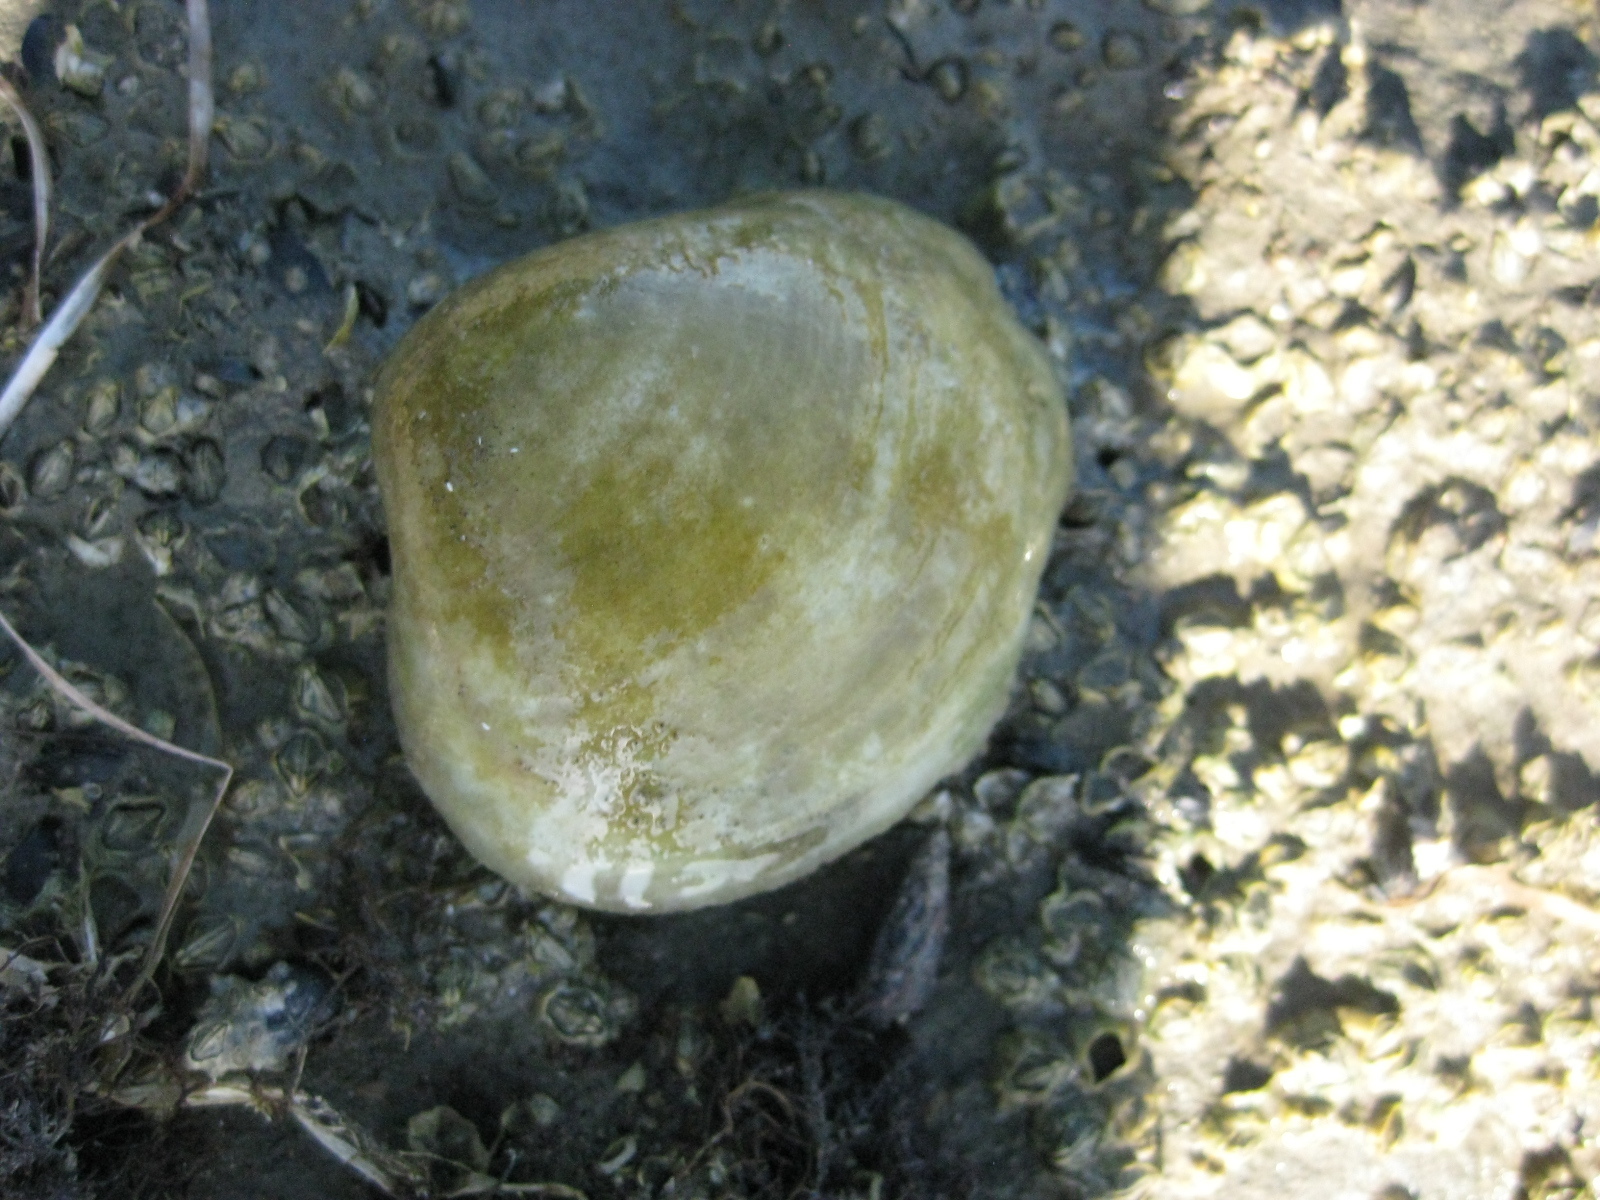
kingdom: Animalia
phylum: Mollusca
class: Bivalvia
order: Venerida
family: Mactridae
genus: Cyclomactra
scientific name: Cyclomactra ovata
